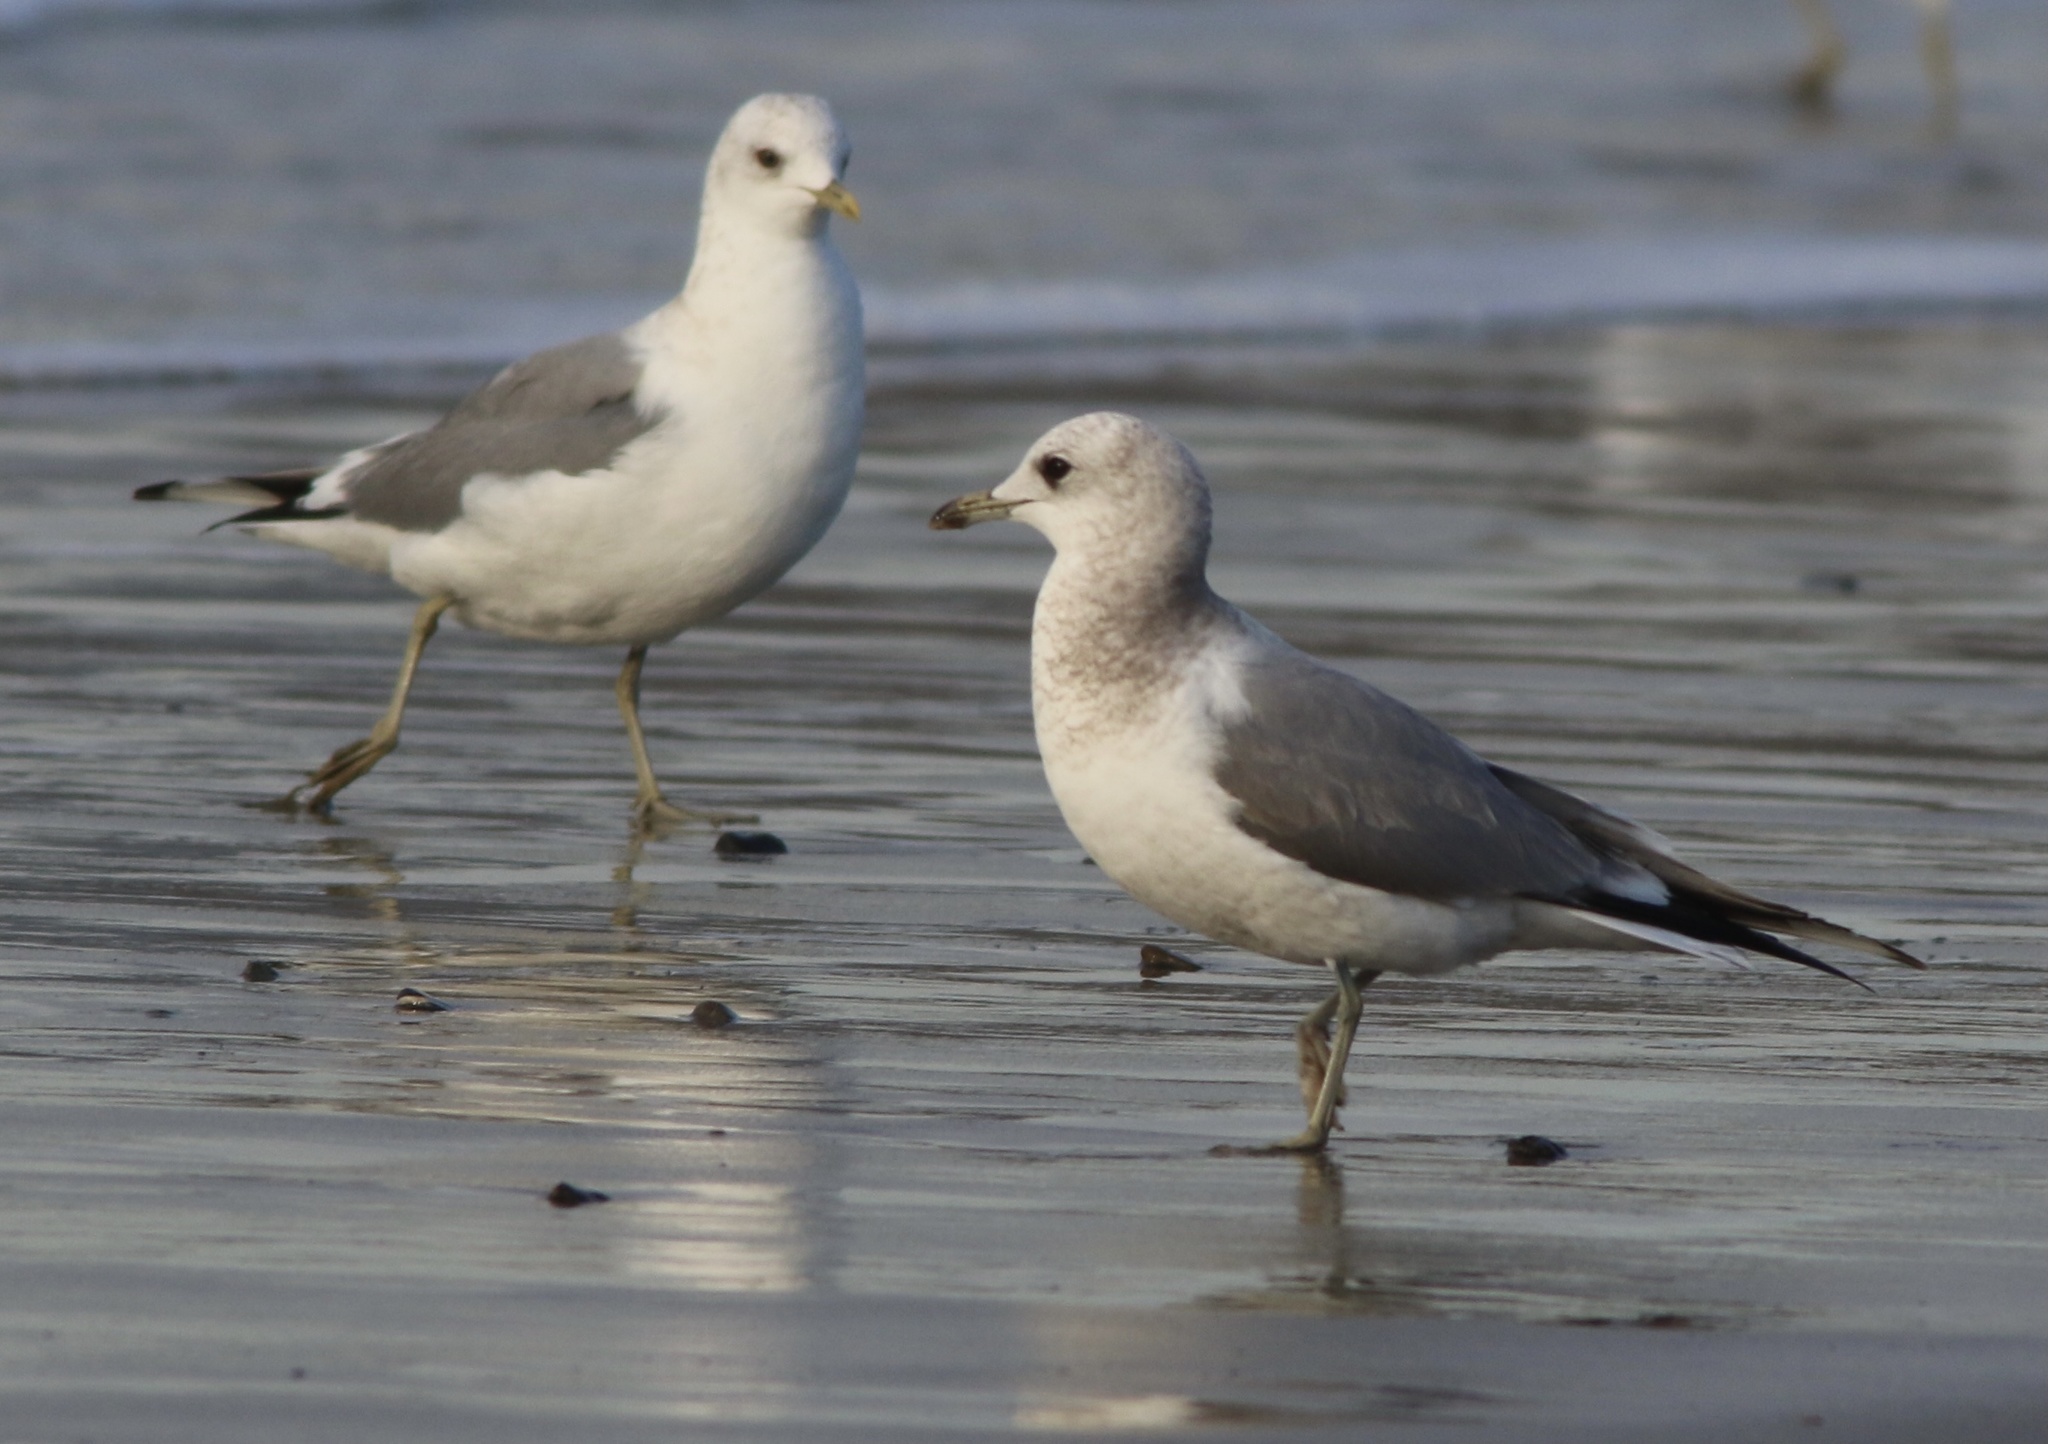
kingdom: Animalia
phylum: Chordata
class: Aves
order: Charadriiformes
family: Laridae
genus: Larus
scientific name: Larus brachyrhynchus
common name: Short-billed gull
